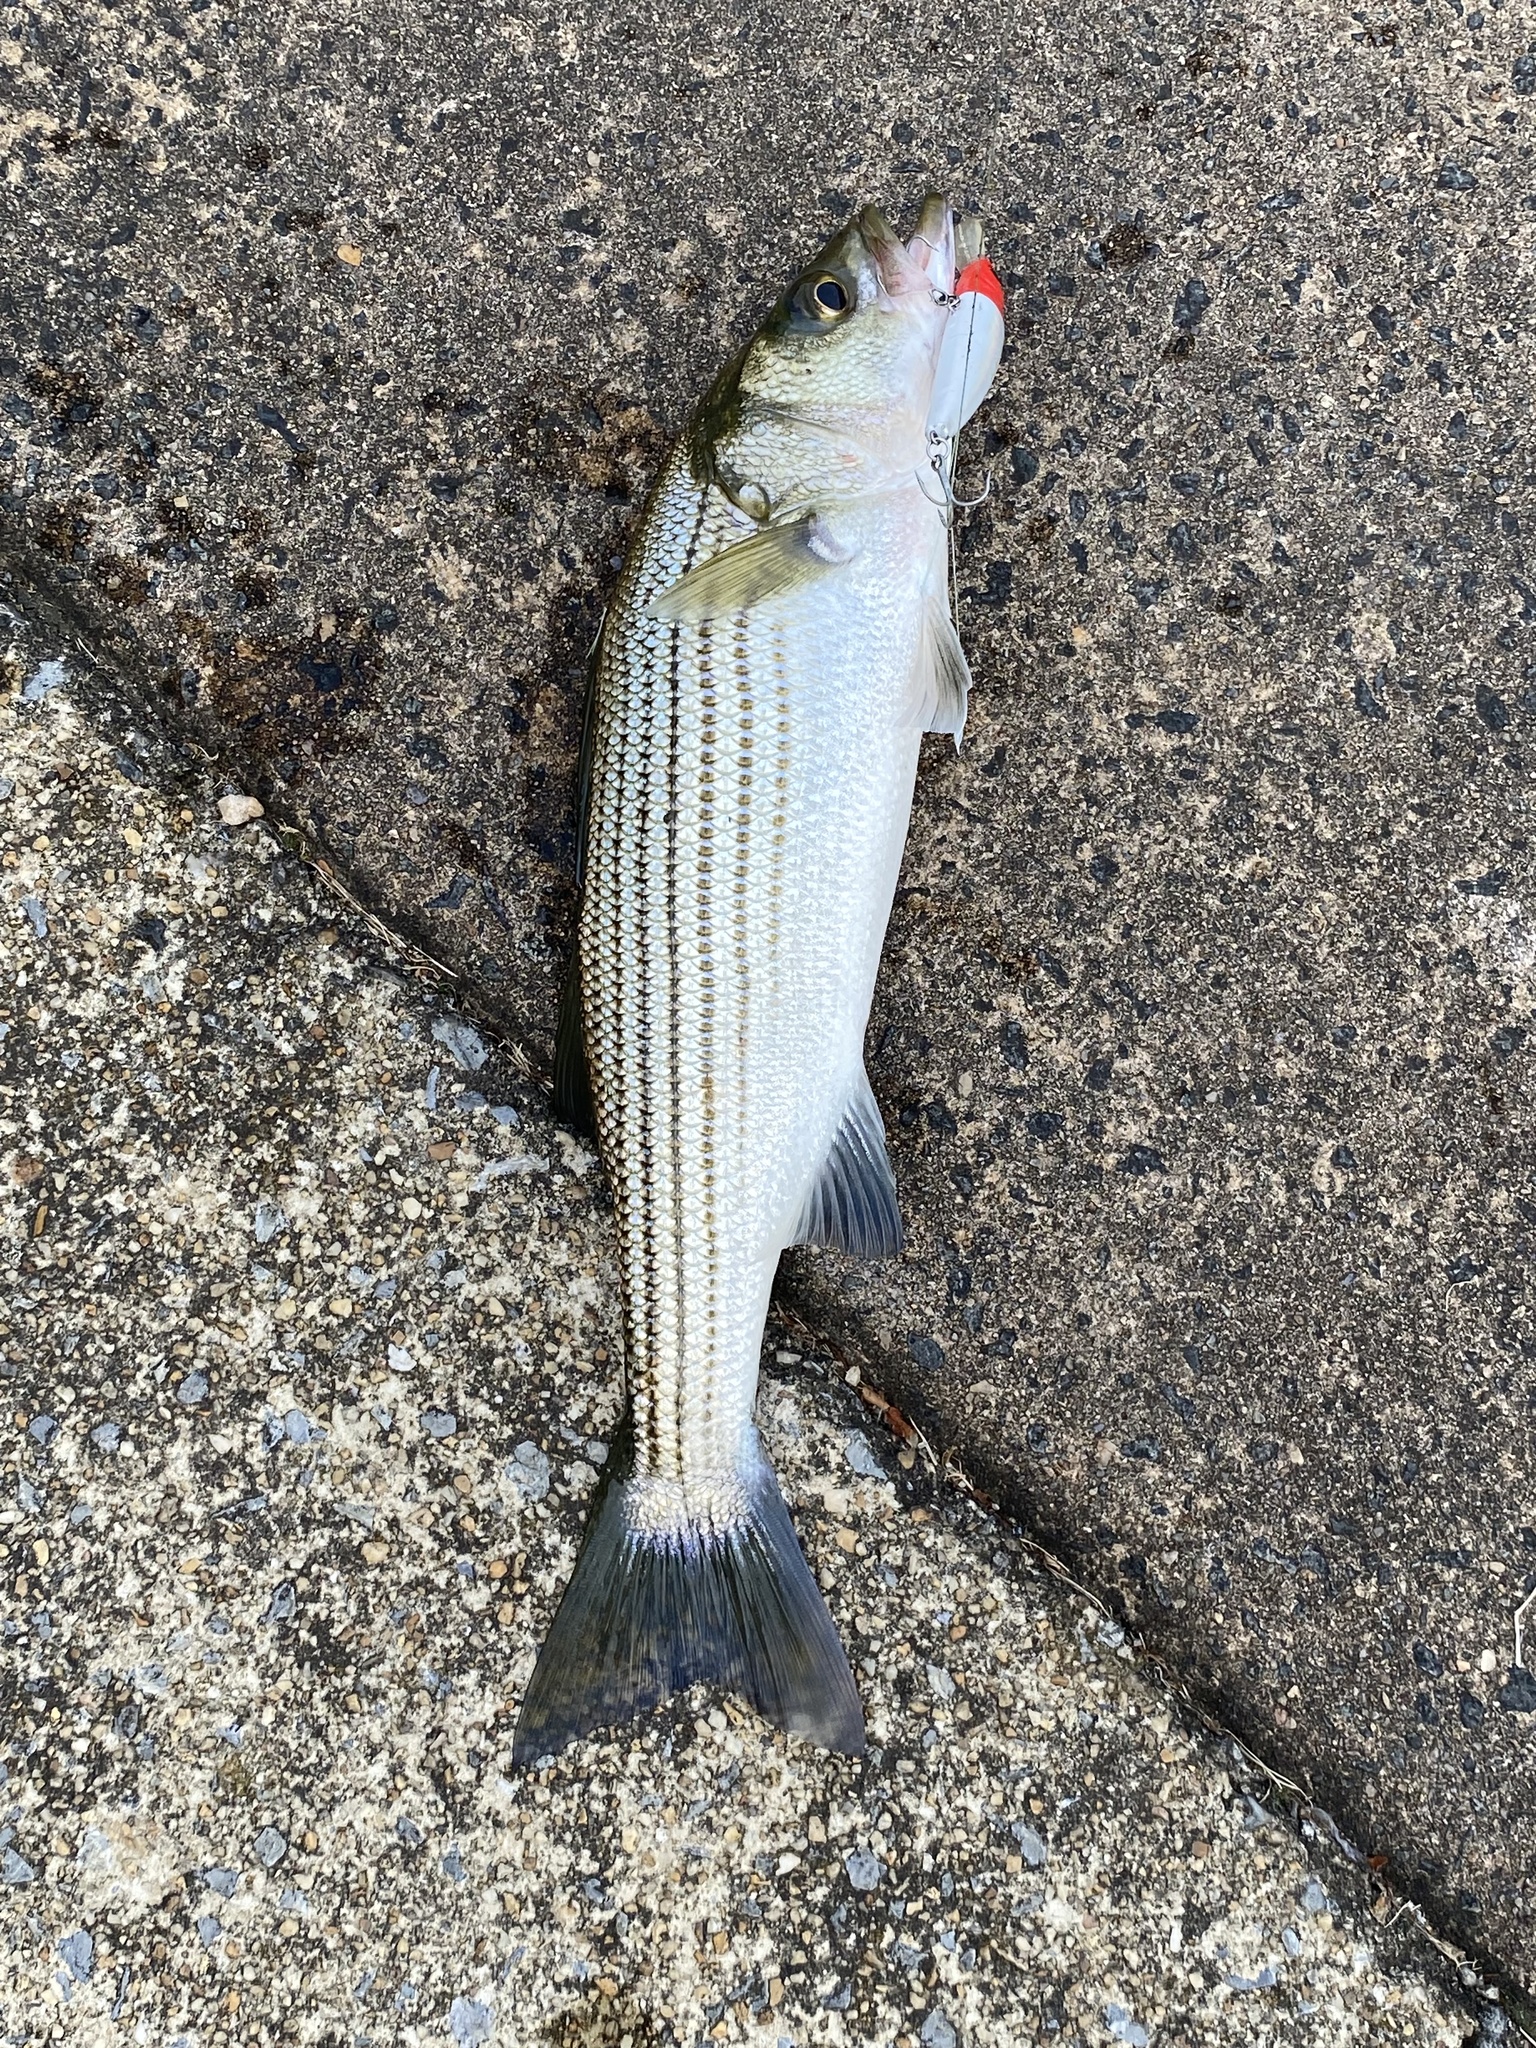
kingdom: Animalia
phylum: Chordata
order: Perciformes
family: Moronidae
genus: Morone
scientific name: Morone saxatilis
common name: Striped bass
